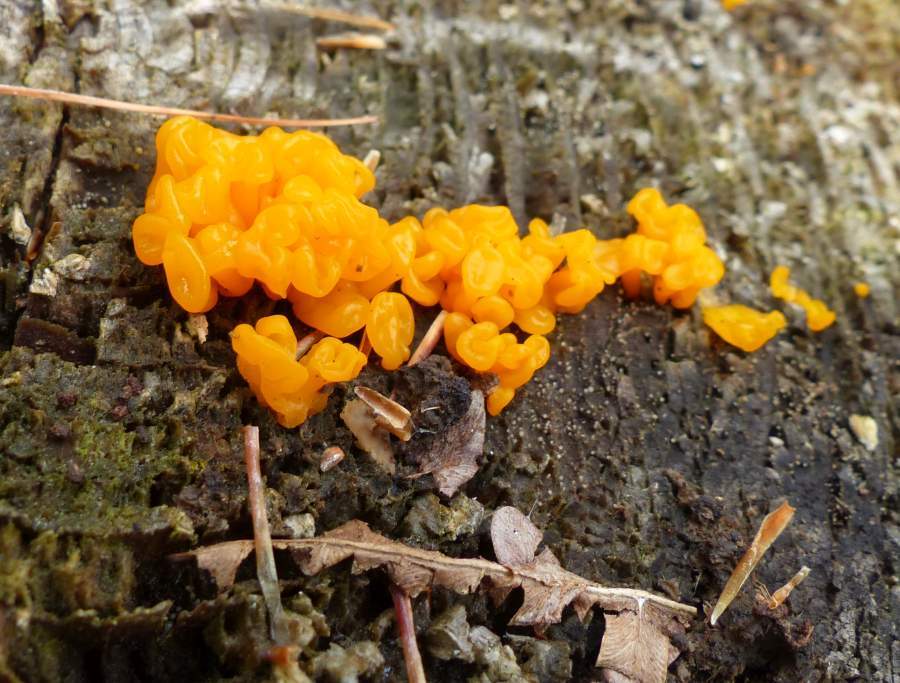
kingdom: Fungi
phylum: Basidiomycota
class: Dacrymycetes
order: Dacrymycetales
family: Dacrymycetaceae
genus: Dacrymyces
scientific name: Dacrymyces chrysospermus
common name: Orange jelly spot
